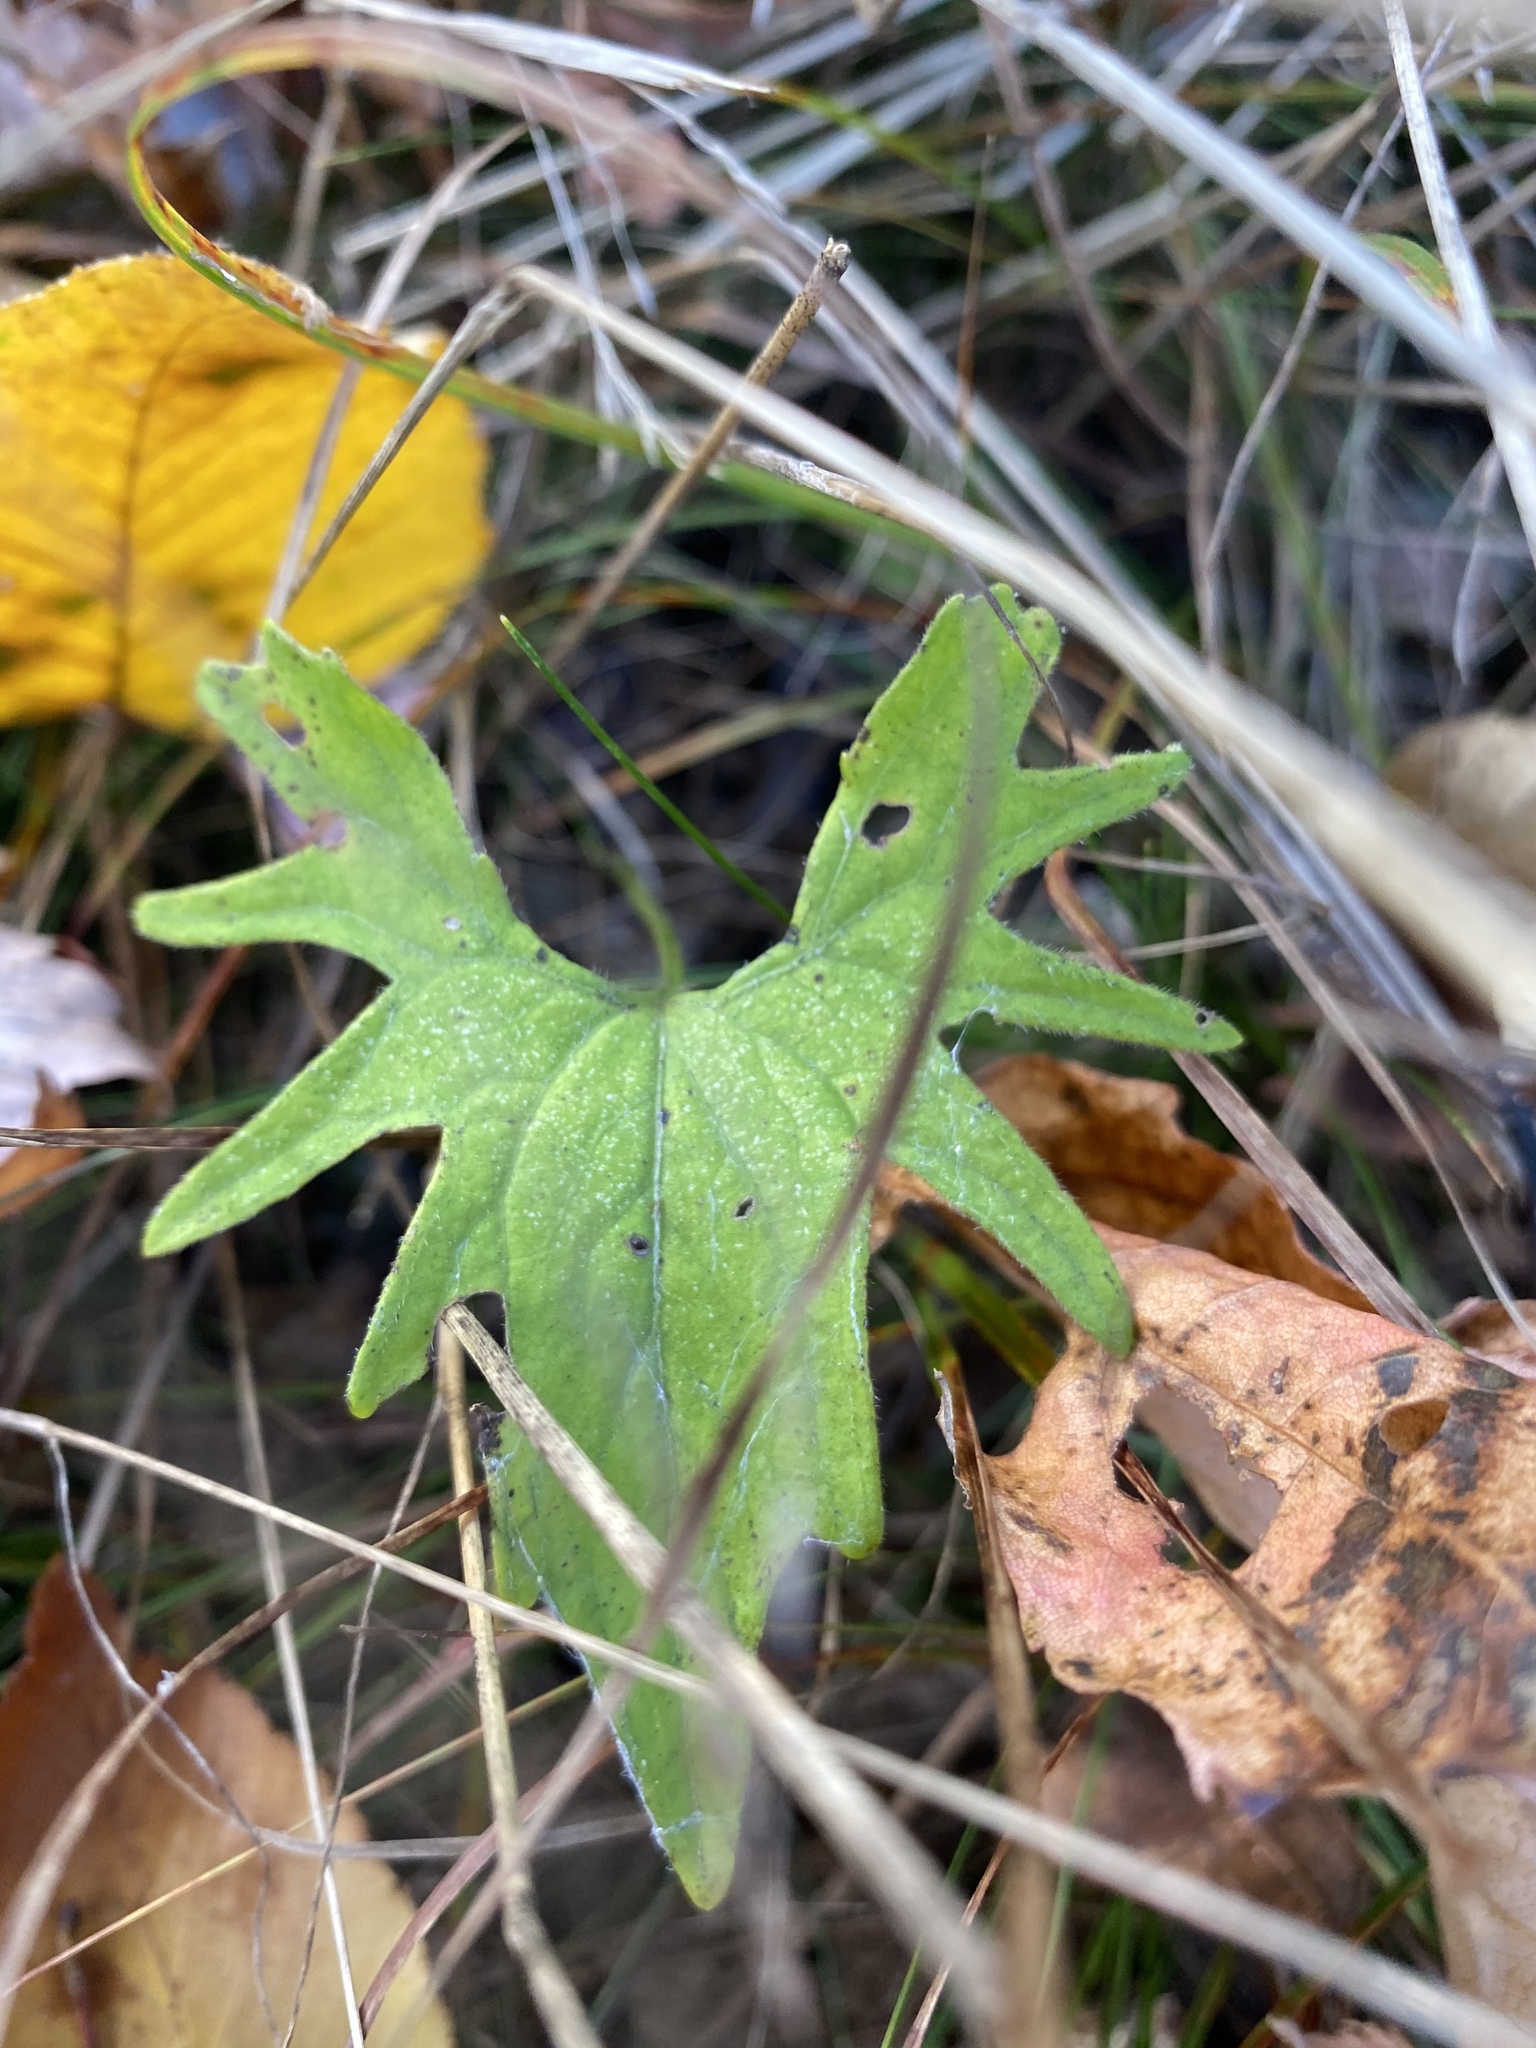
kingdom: Plantae
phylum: Tracheophyta
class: Magnoliopsida
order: Malpighiales
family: Violaceae
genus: Viola
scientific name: Viola palmata
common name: Early blue violet
